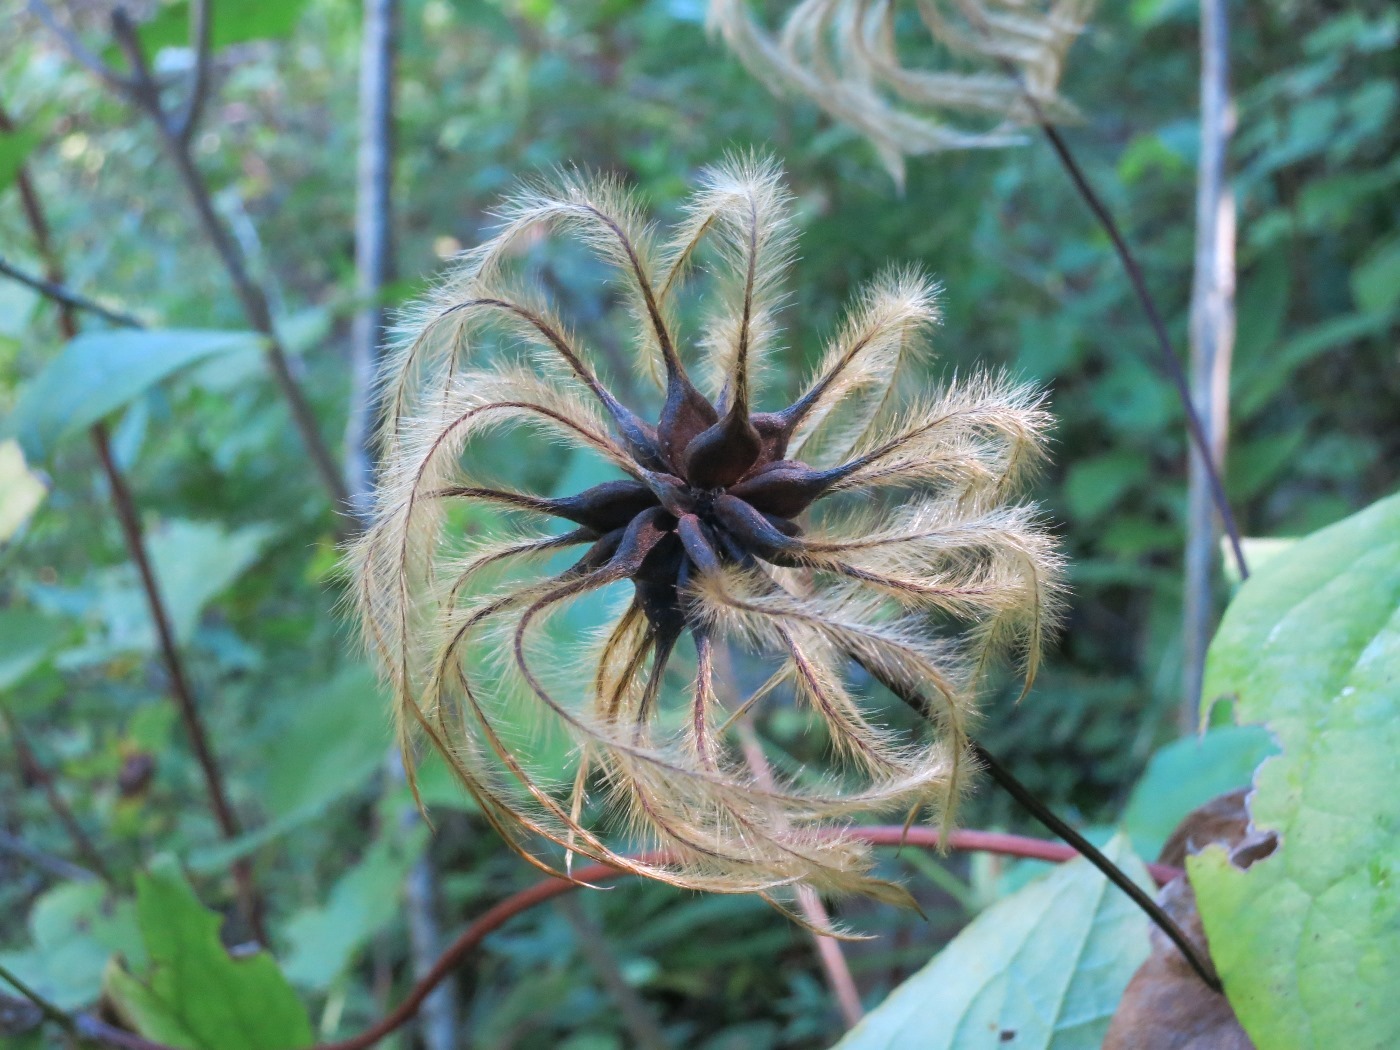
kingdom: Plantae
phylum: Tracheophyta
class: Magnoliopsida
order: Ranunculales
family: Ranunculaceae
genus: Clematis
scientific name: Clematis cumberlandensis
